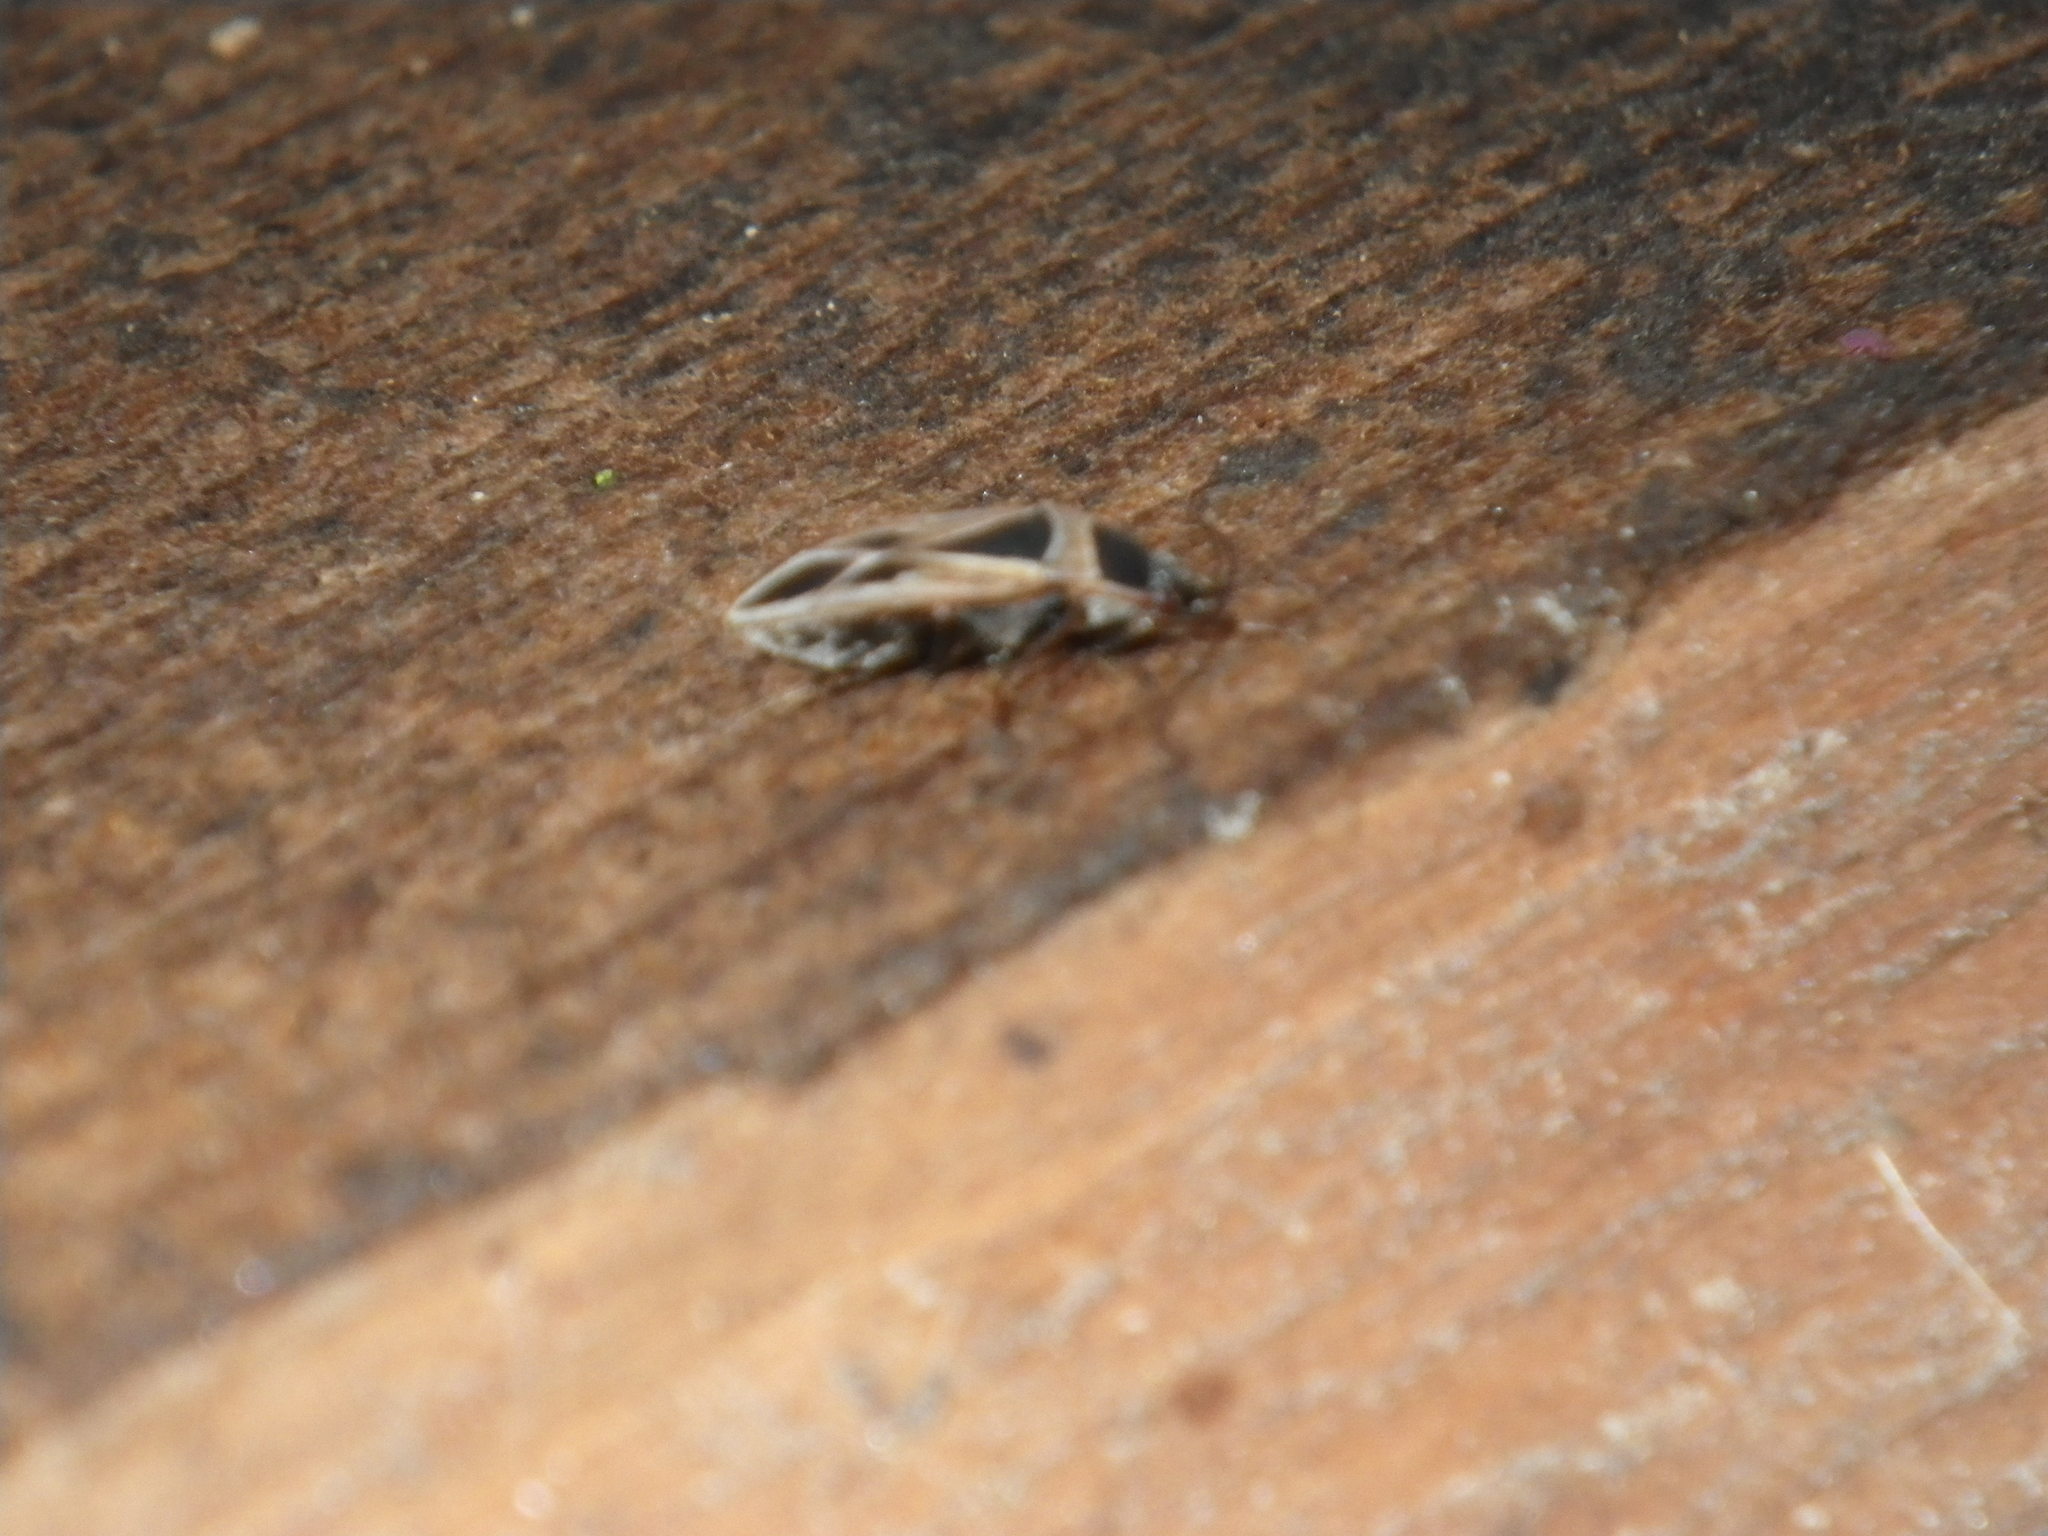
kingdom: Animalia
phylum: Arthropoda
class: Insecta
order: Hemiptera
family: Rhyparochromidae
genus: Xanthochilus
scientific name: Xanthochilus saturnius
